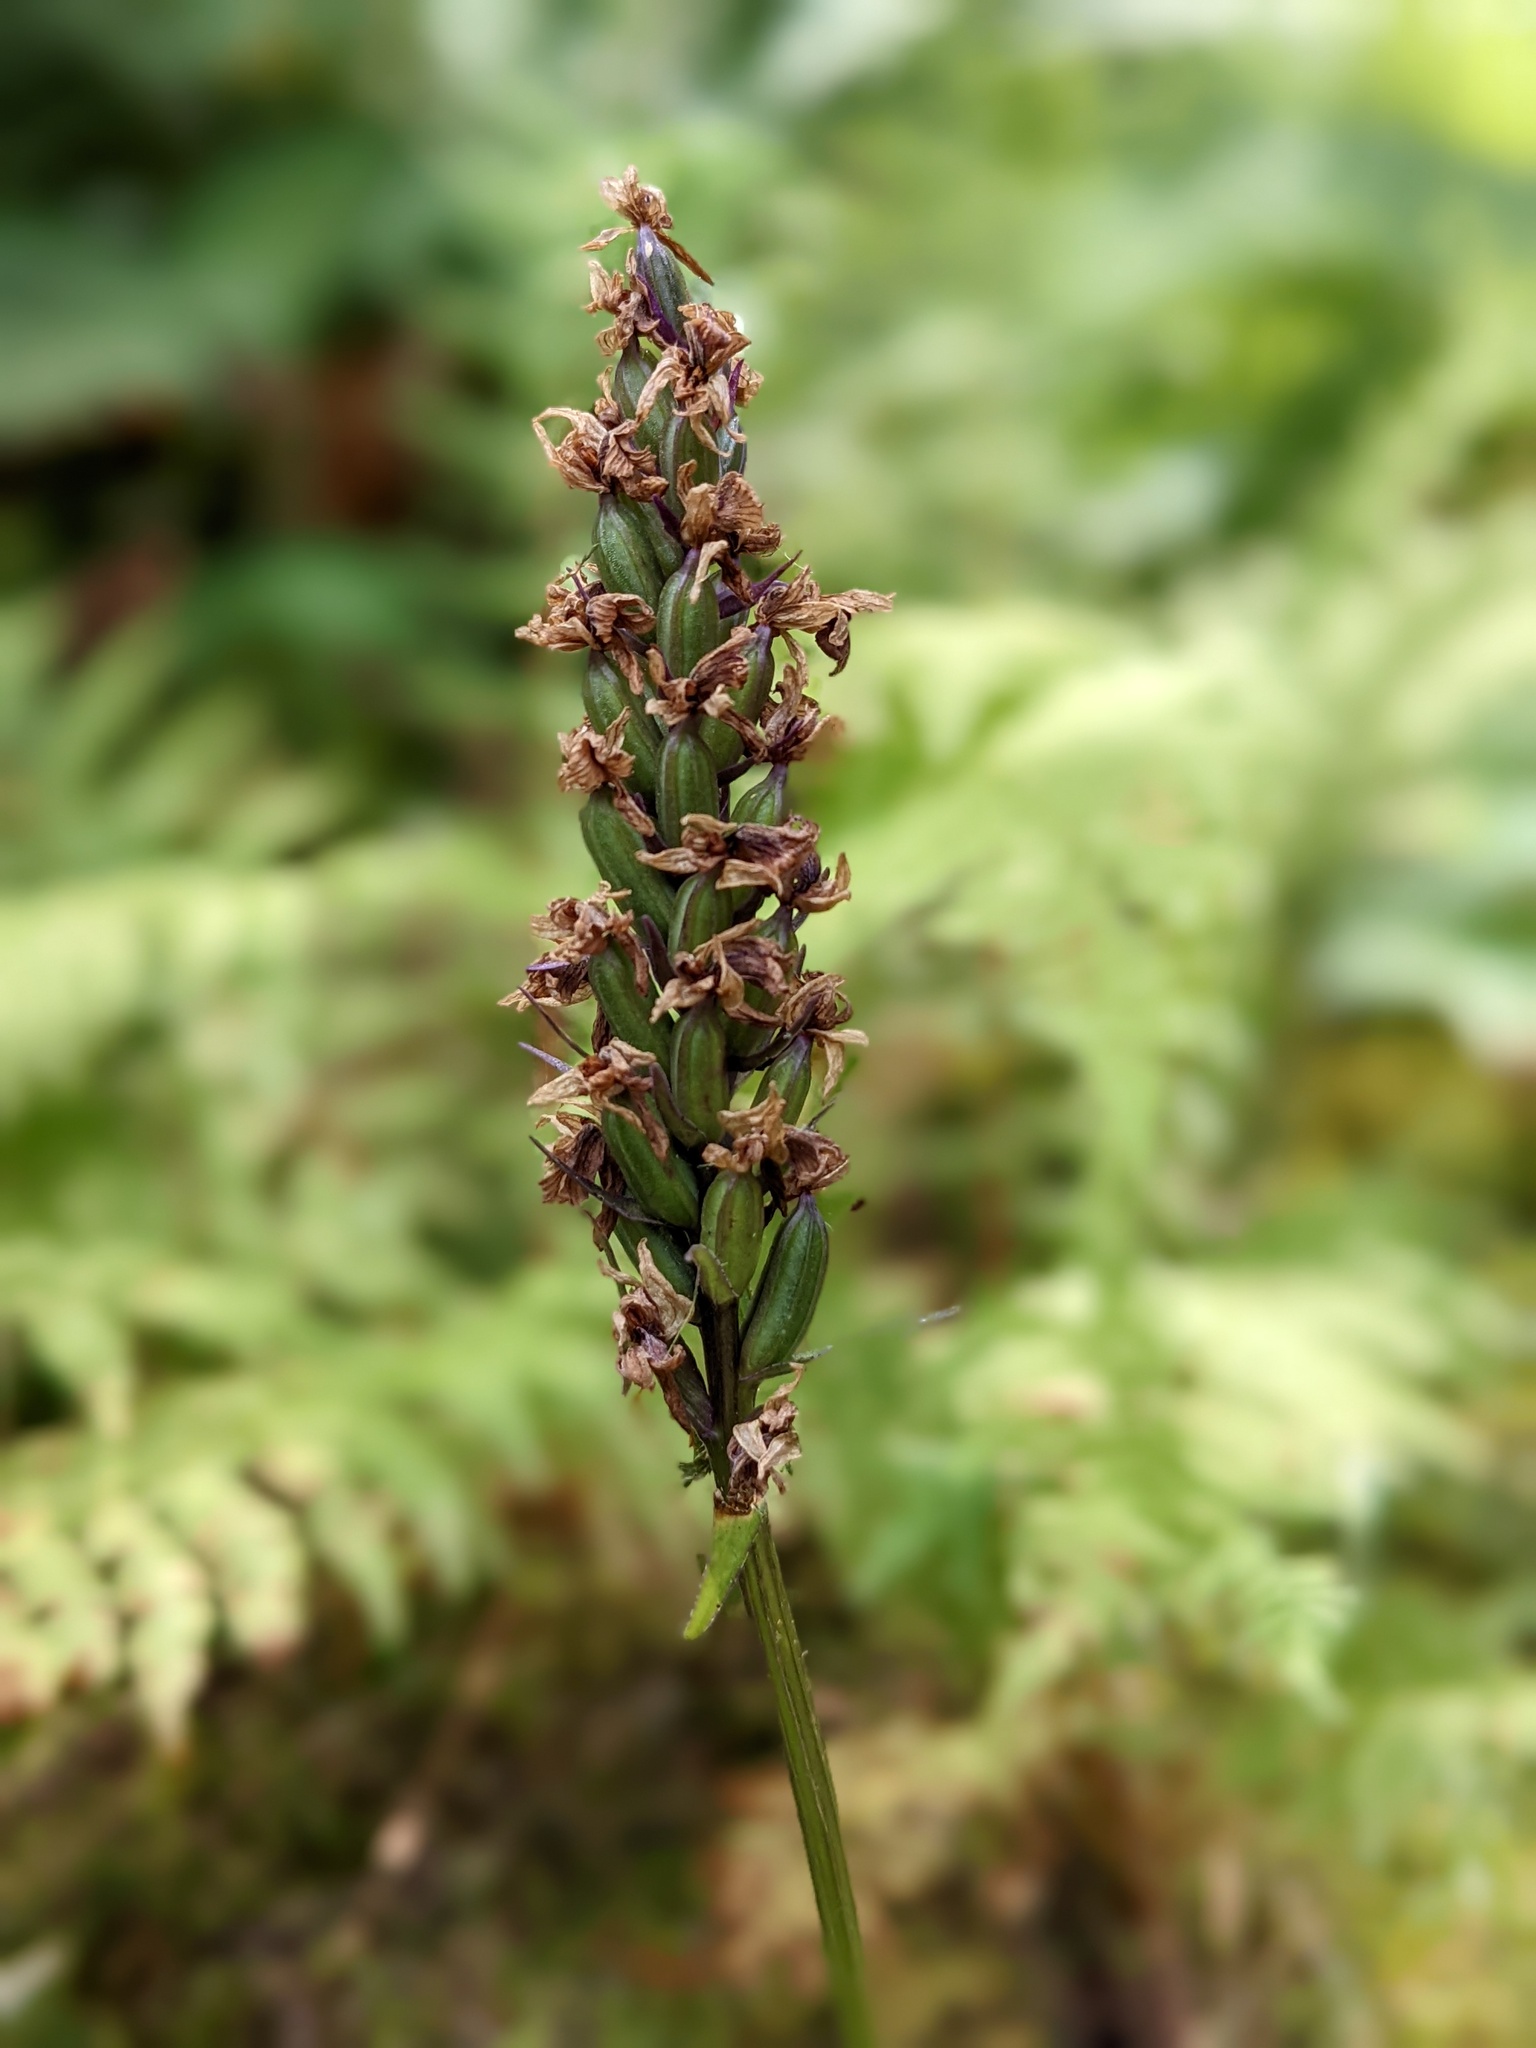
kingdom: Plantae
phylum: Tracheophyta
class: Liliopsida
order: Asparagales
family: Orchidaceae
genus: Dactylorhiza
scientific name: Dactylorhiza maculata
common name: Heath spotted-orchid
